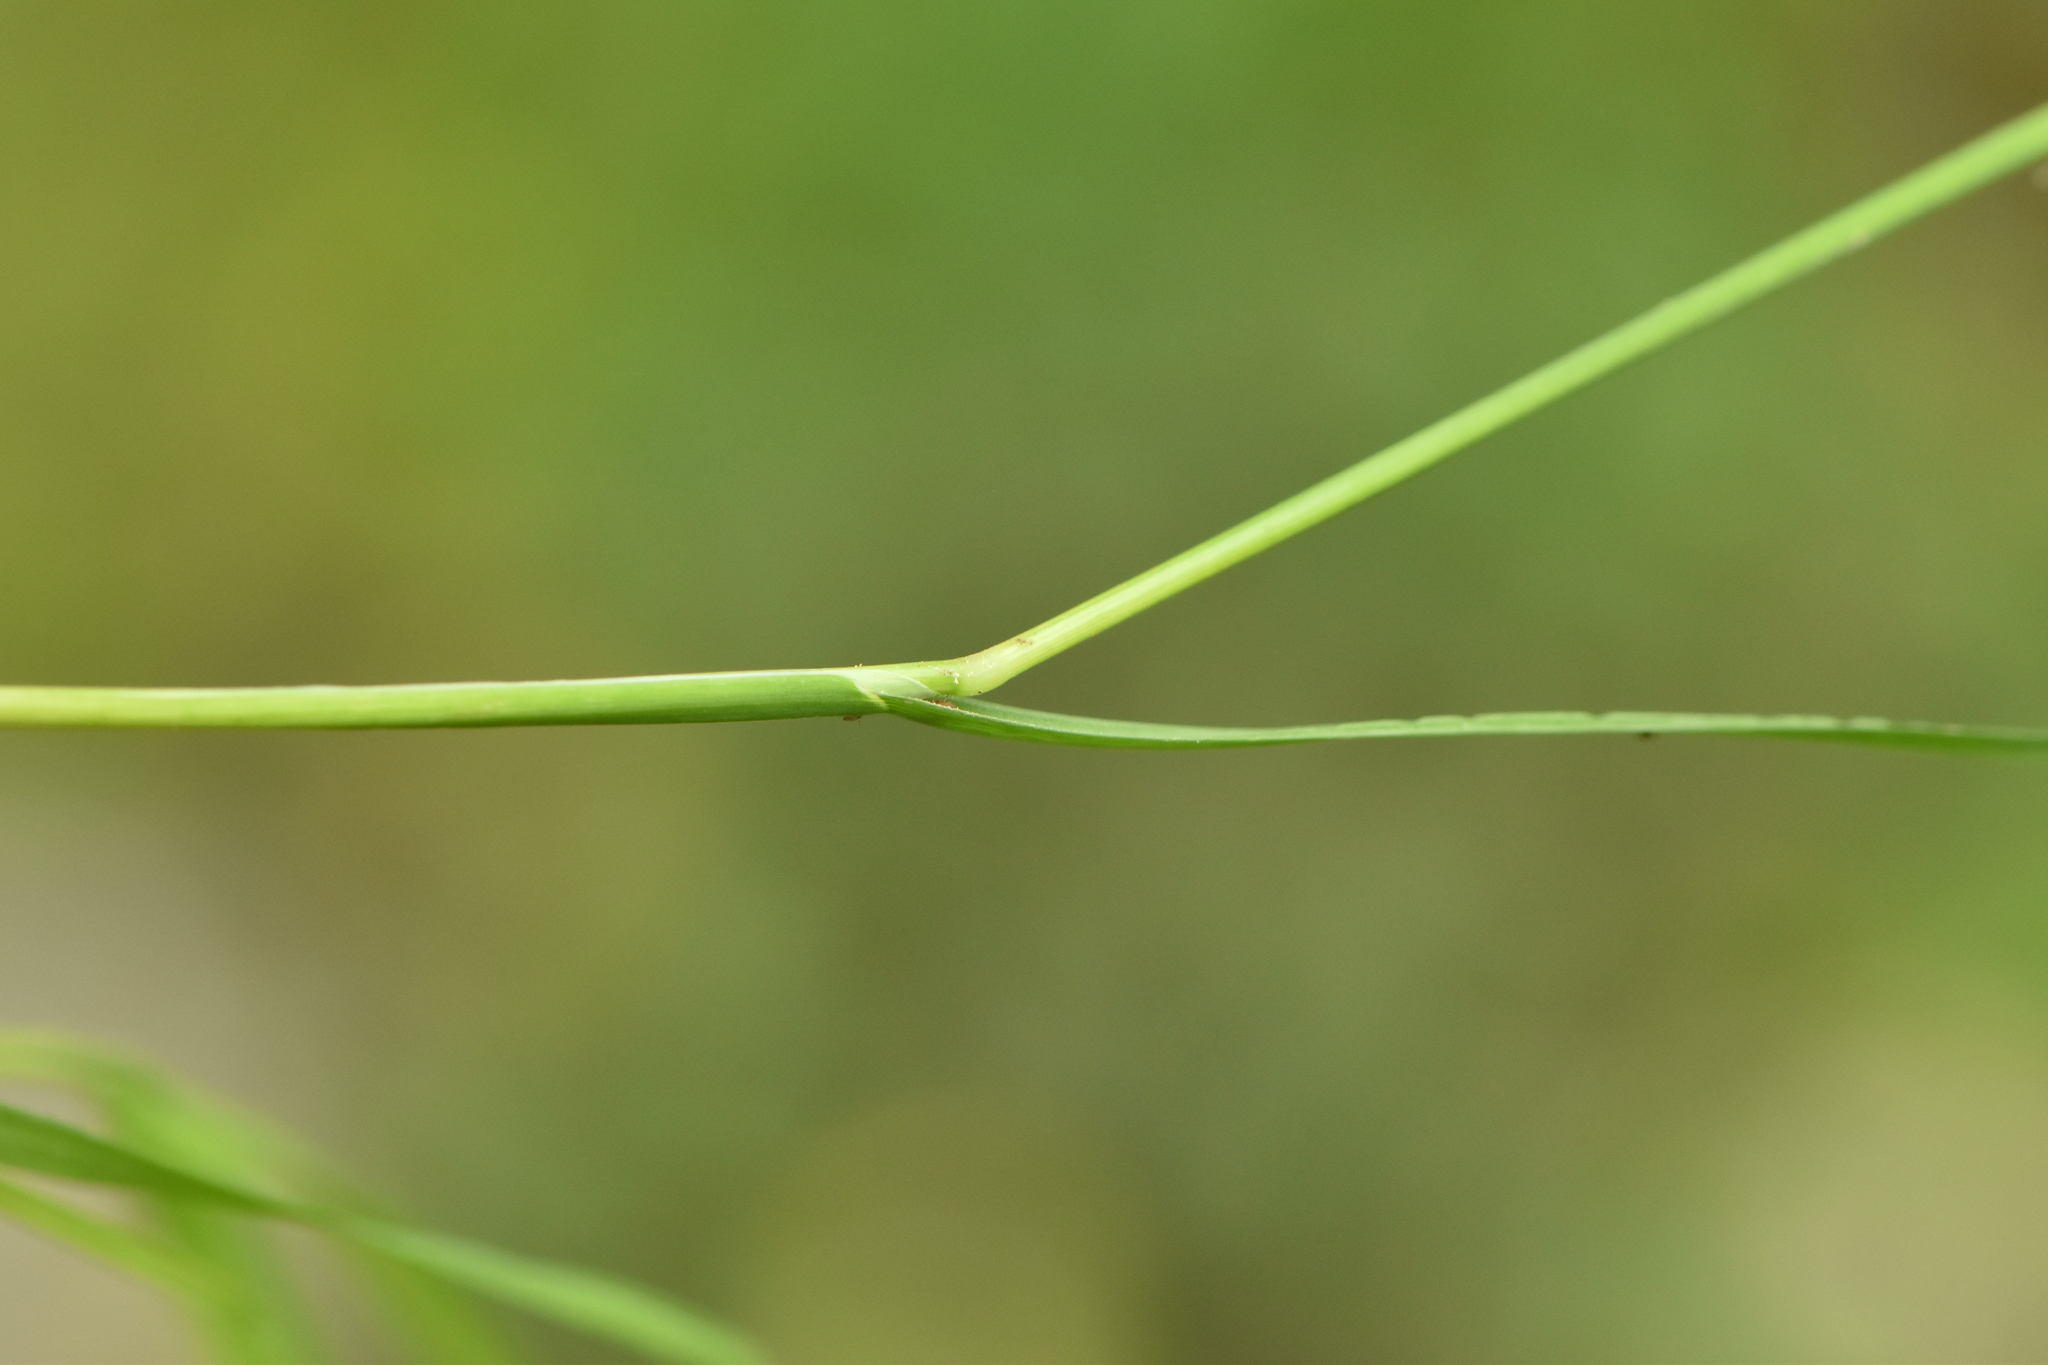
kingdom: Plantae
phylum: Tracheophyta
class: Liliopsida
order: Poales
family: Poaceae
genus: Poa
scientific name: Poa annua
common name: Annual bluegrass
